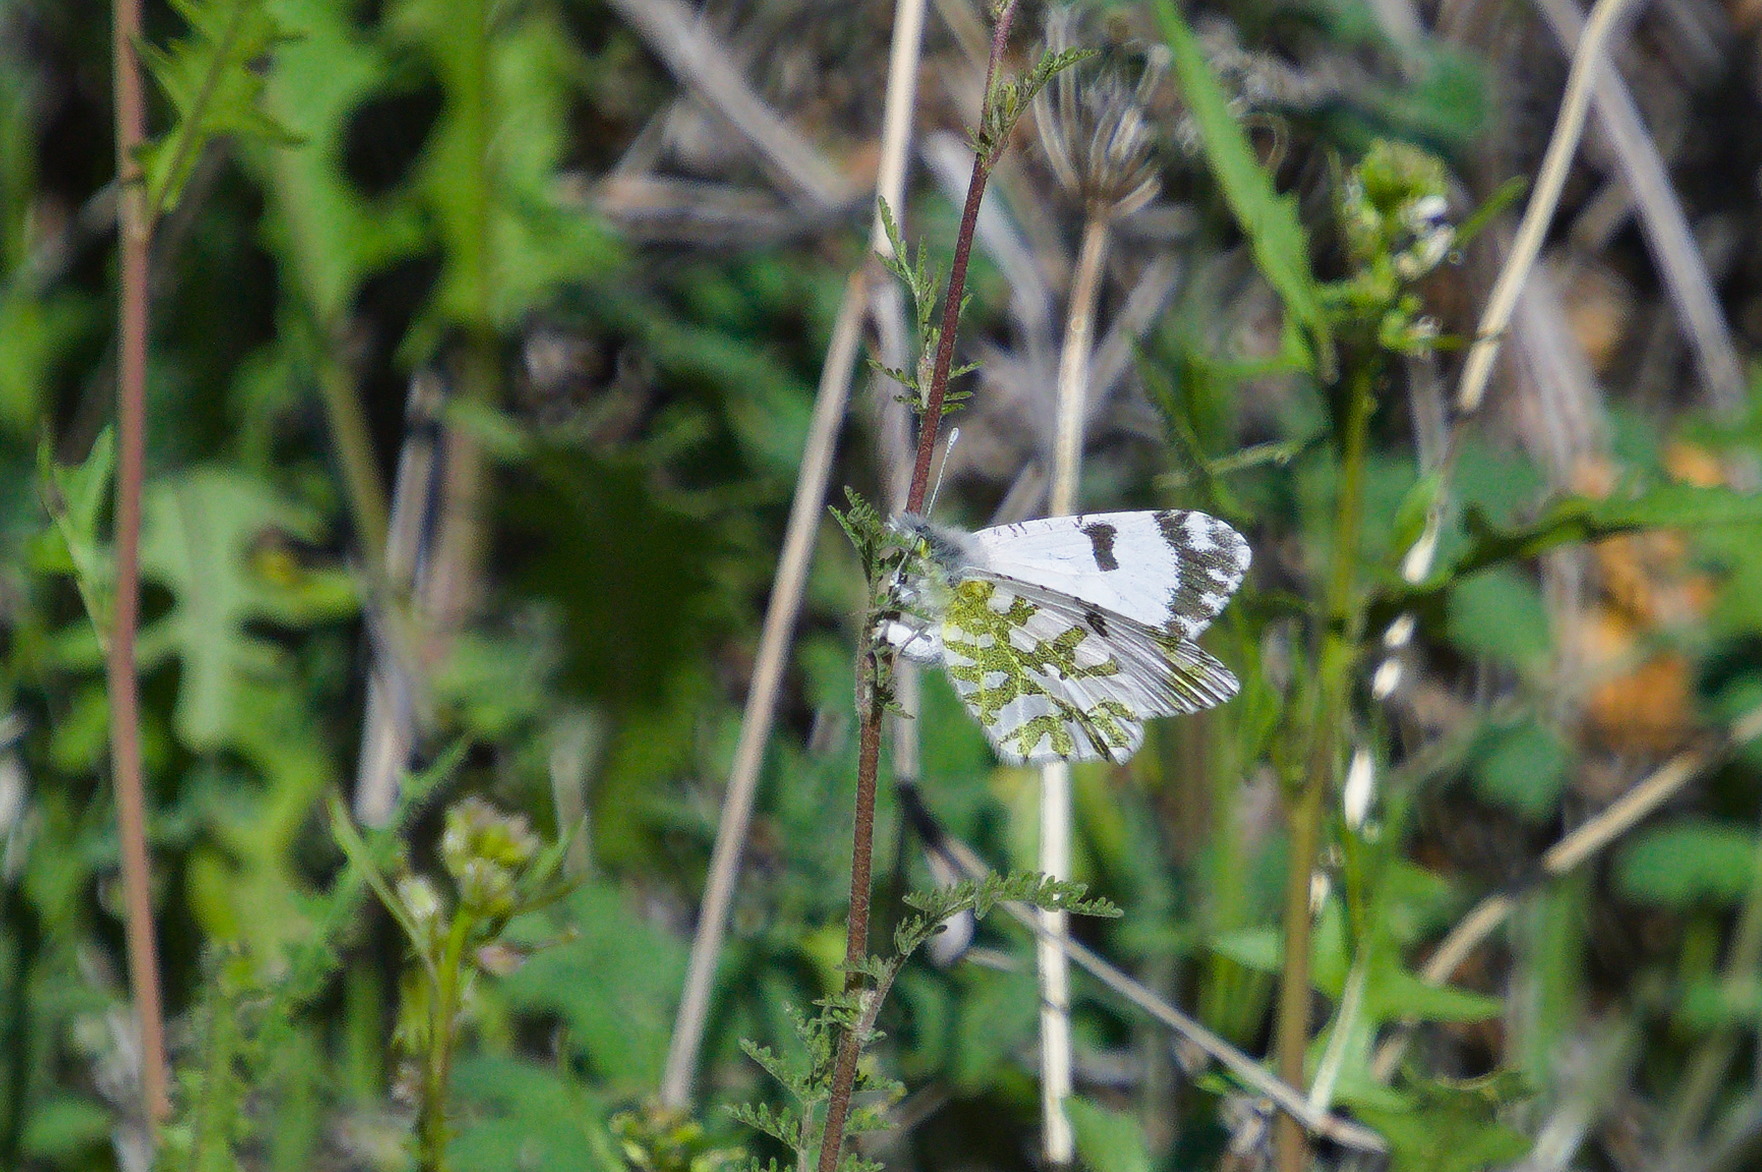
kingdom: Animalia
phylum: Arthropoda
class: Insecta
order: Lepidoptera
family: Pieridae
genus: Euchloe
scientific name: Euchloe lotta
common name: Desert marble
